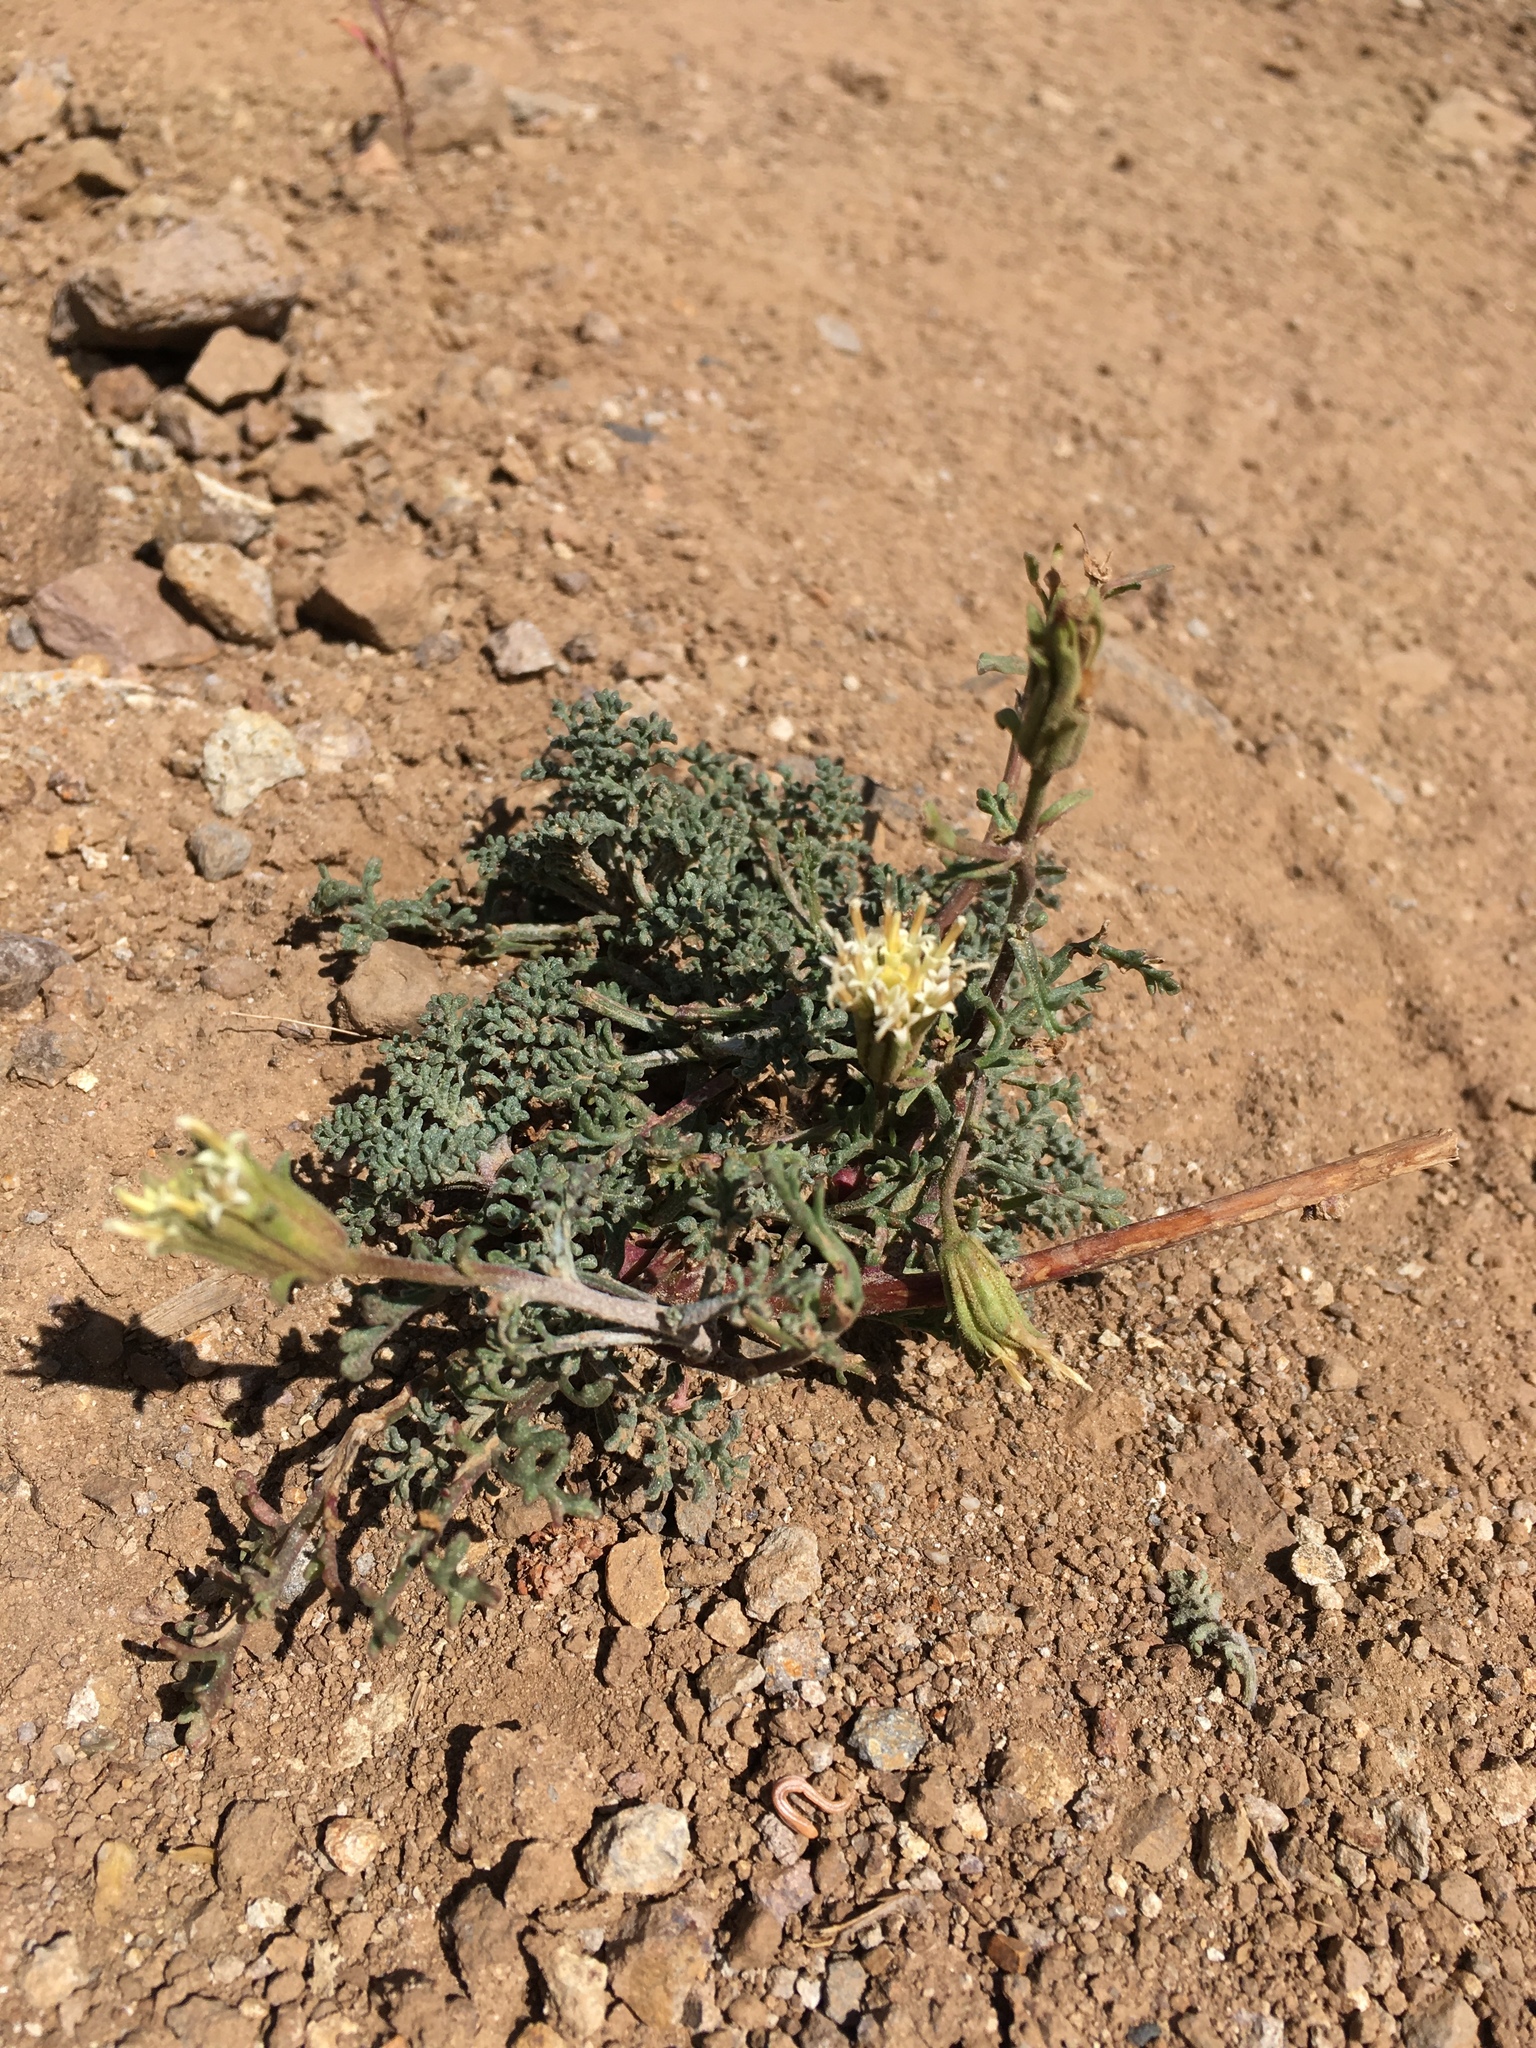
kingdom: Plantae
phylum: Tracheophyta
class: Magnoliopsida
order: Asterales
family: Asteraceae
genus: Chaenactis
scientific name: Chaenactis douglasii
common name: Hoary pincushion
